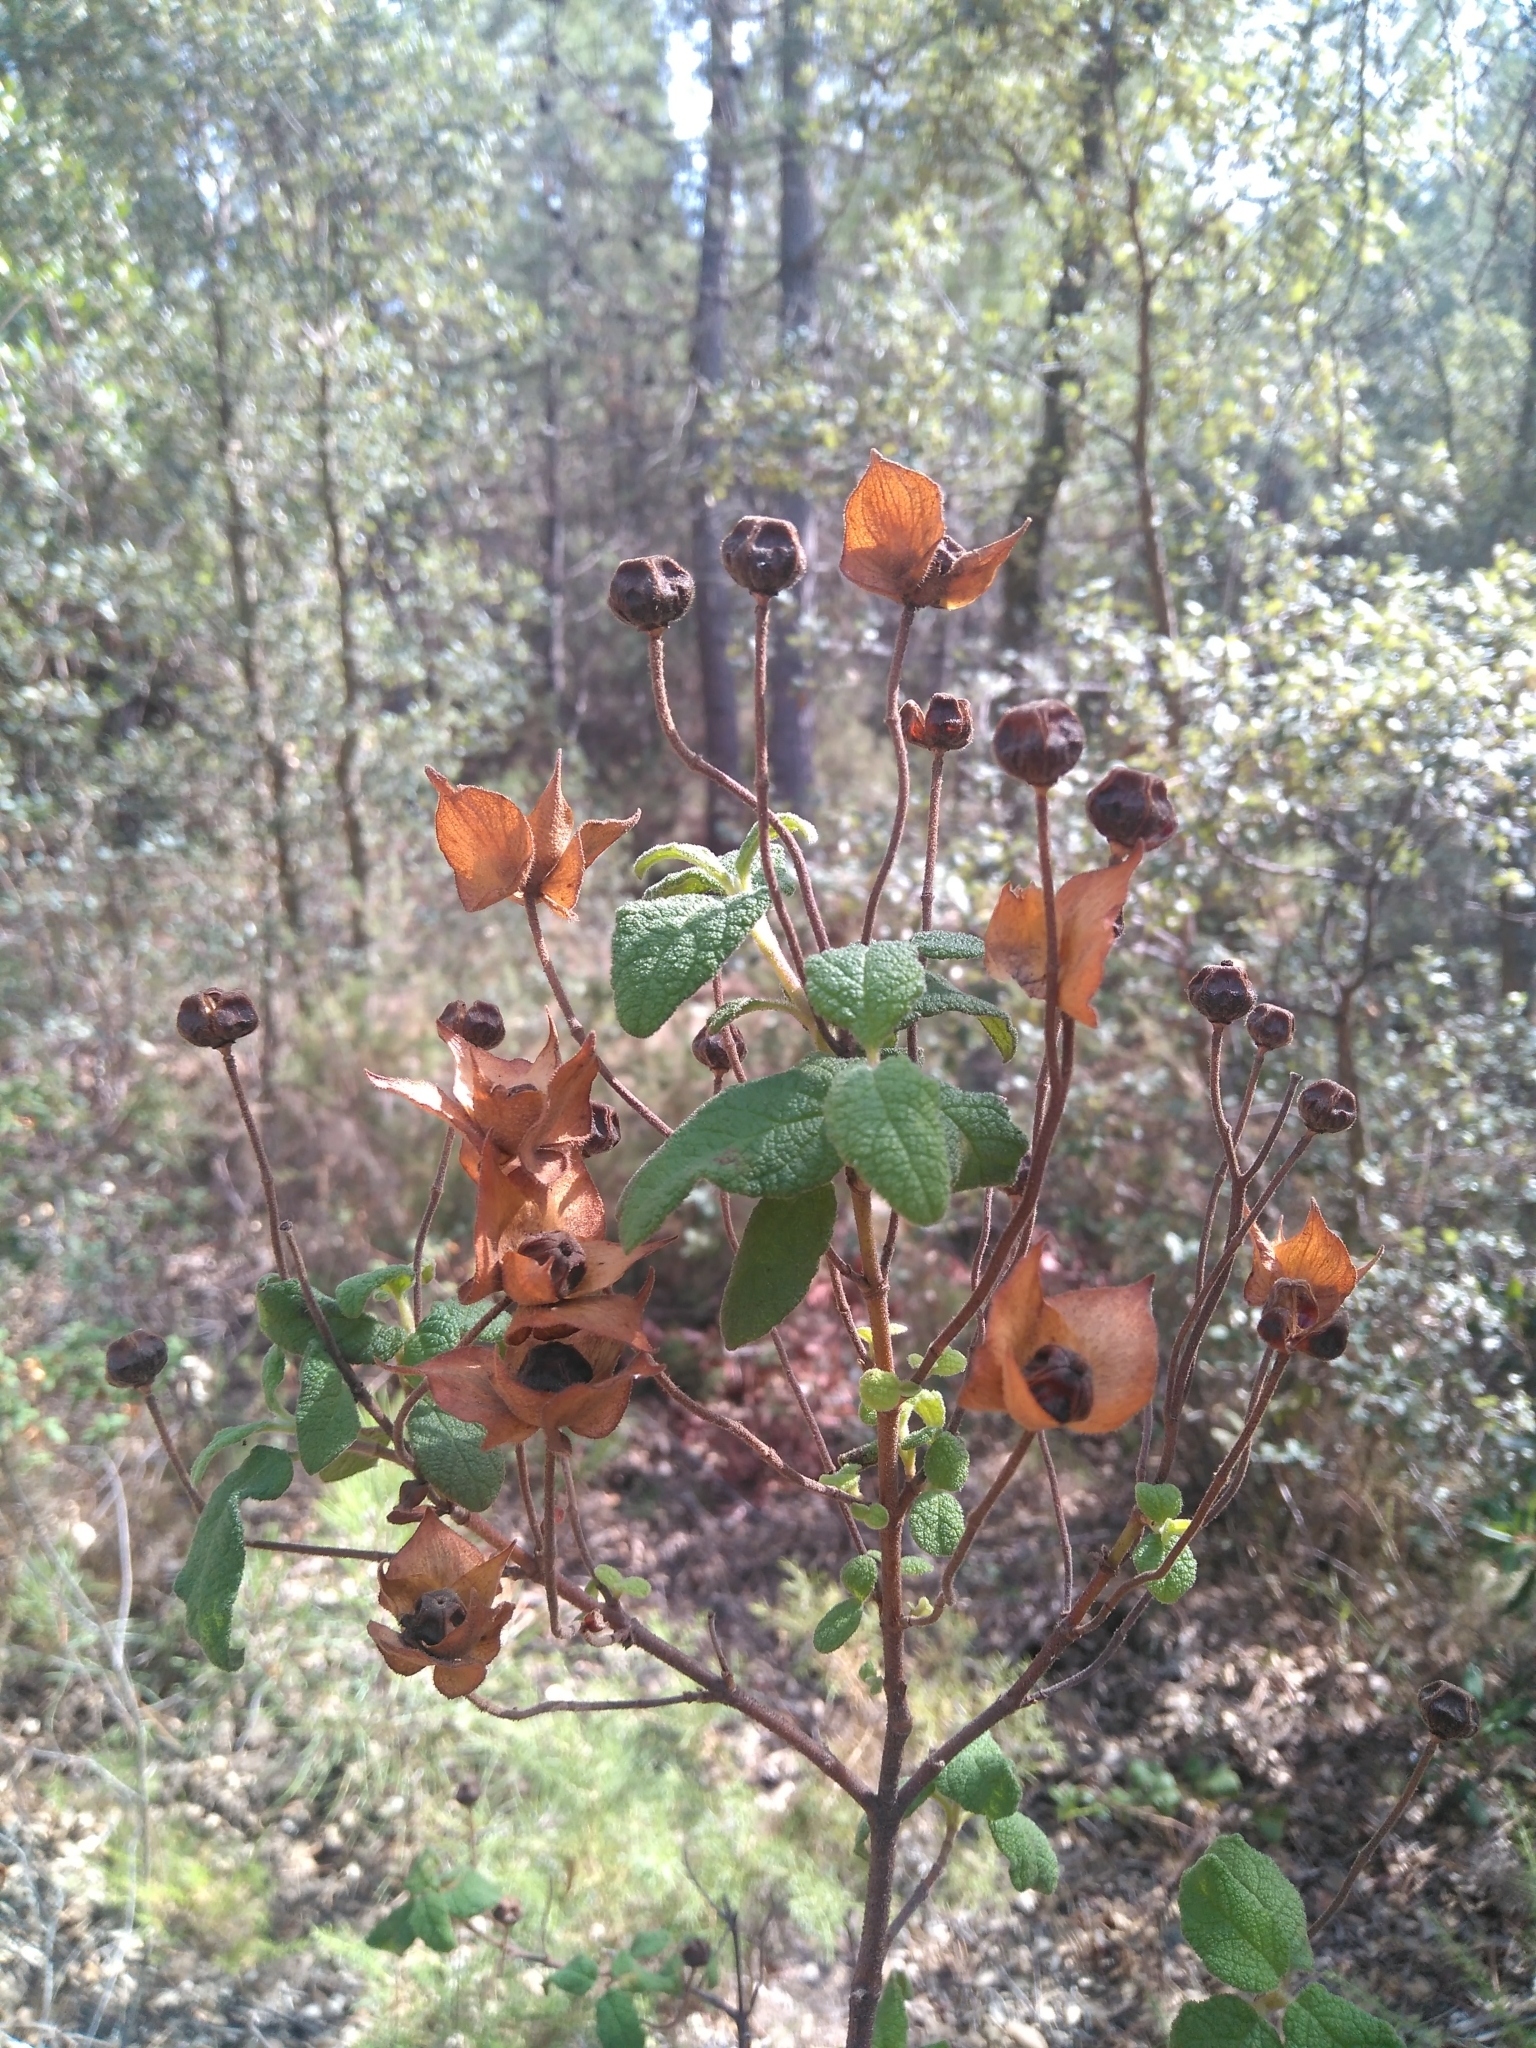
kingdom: Plantae
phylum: Tracheophyta
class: Magnoliopsida
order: Malvales
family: Cistaceae
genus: Cistus
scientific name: Cistus salviifolius
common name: Salvia cistus
